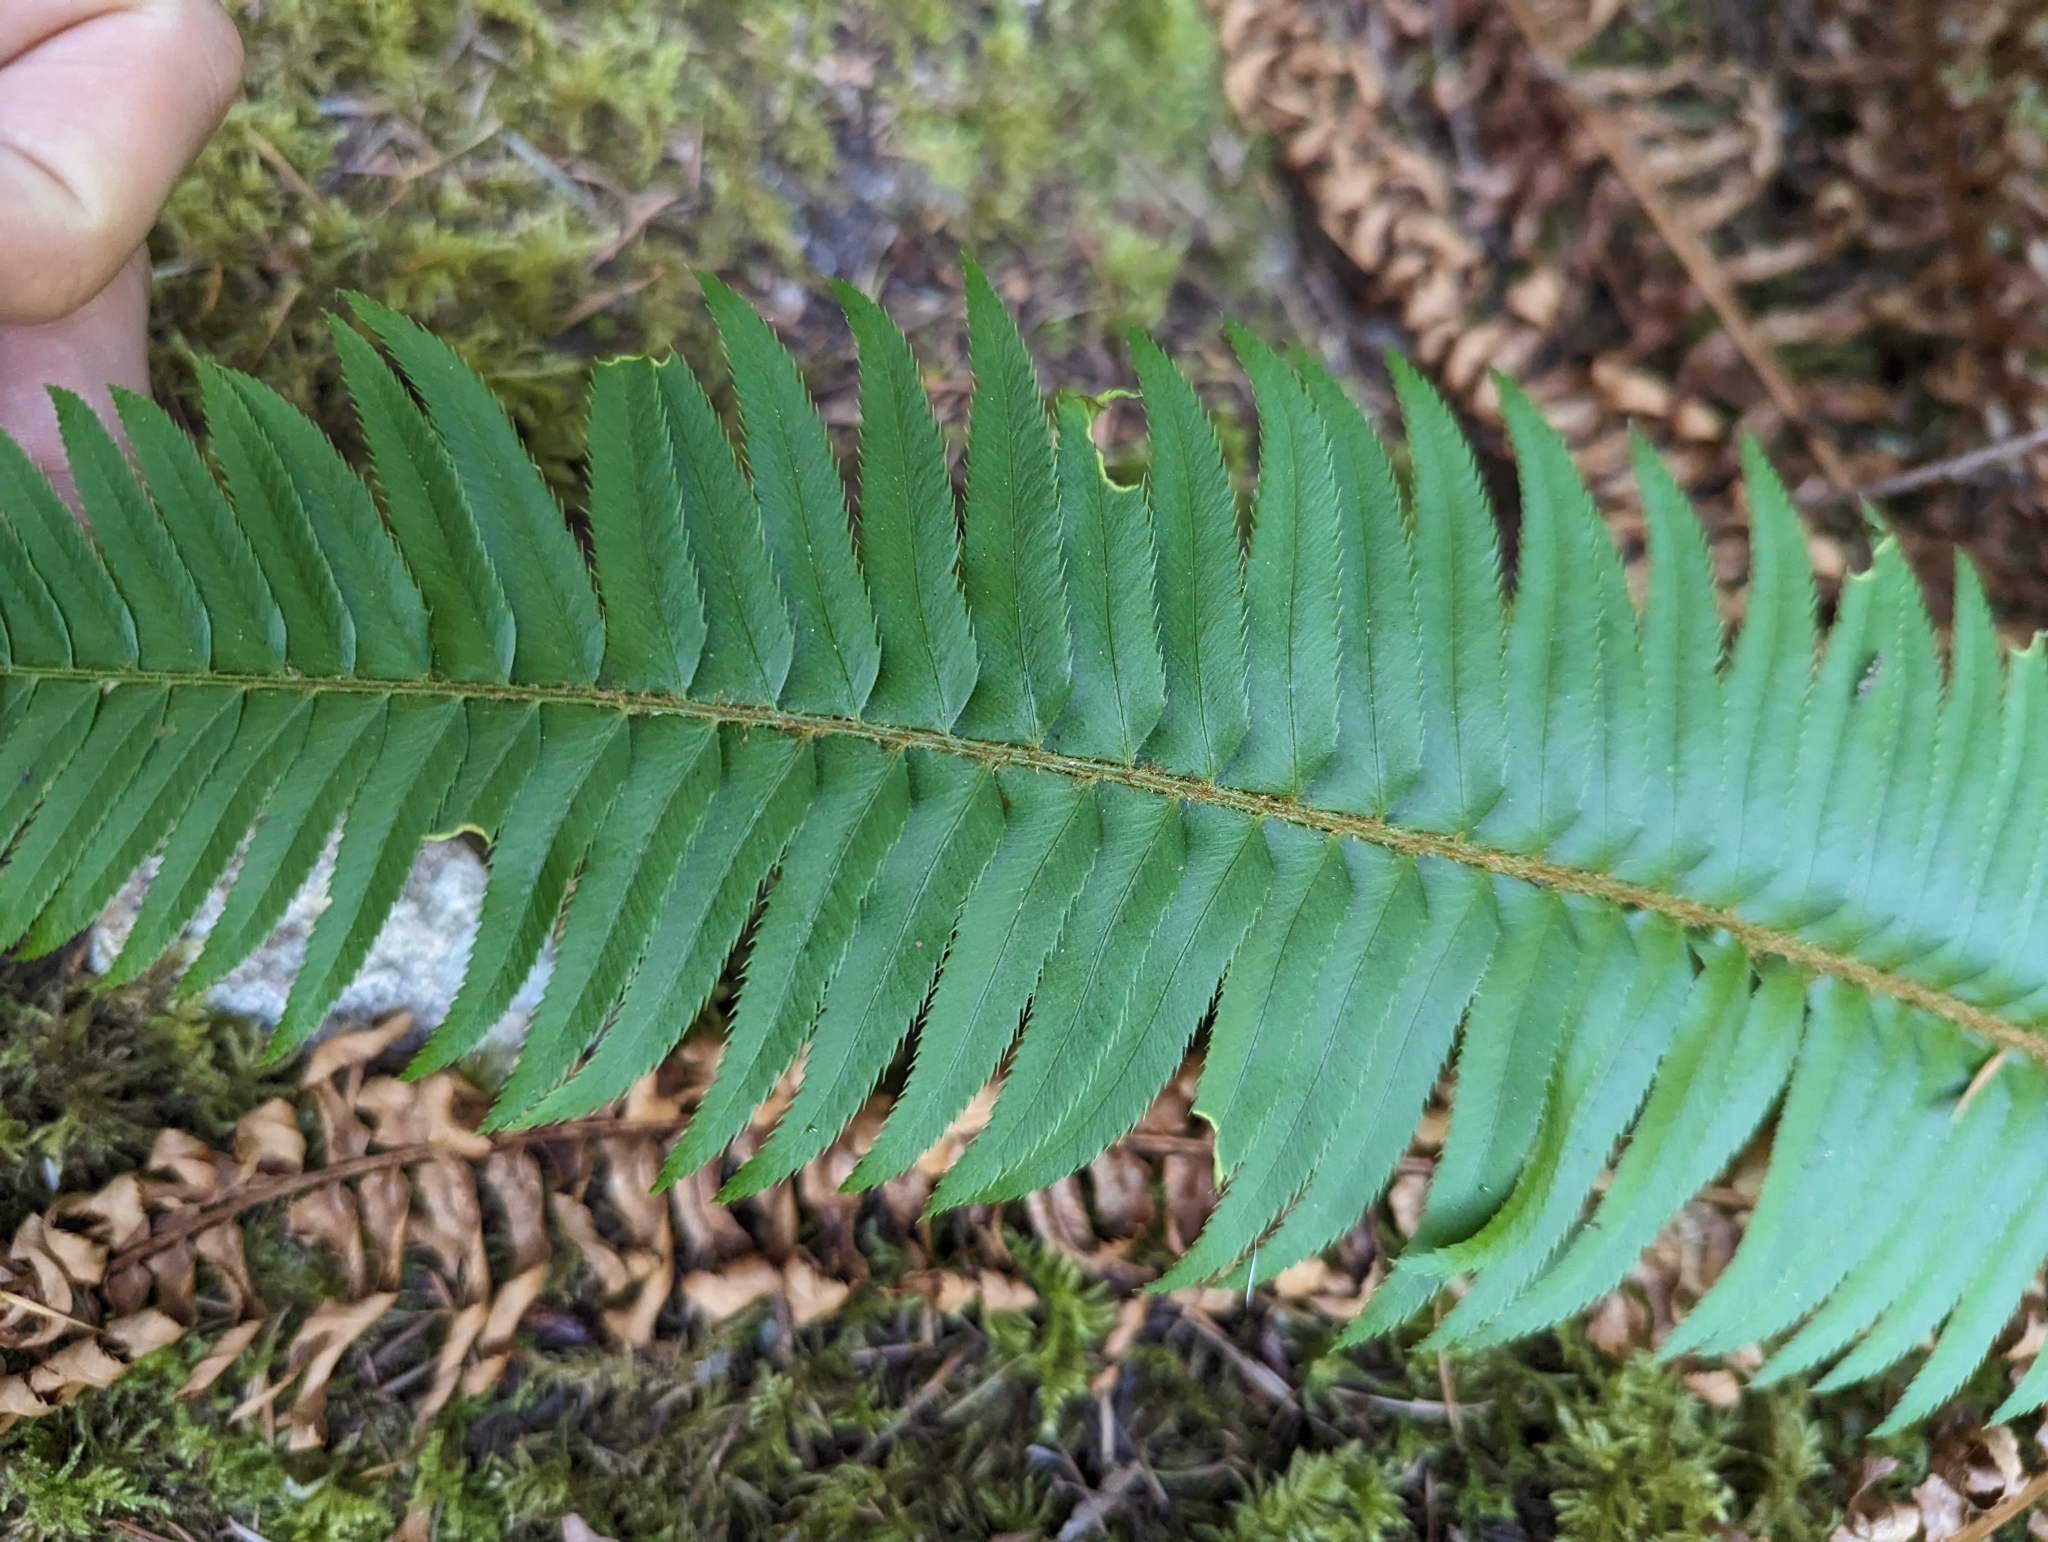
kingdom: Plantae
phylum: Tracheophyta
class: Polypodiopsida
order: Polypodiales
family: Dryopteridaceae
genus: Polystichum
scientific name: Polystichum munitum
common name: Western sword-fern
